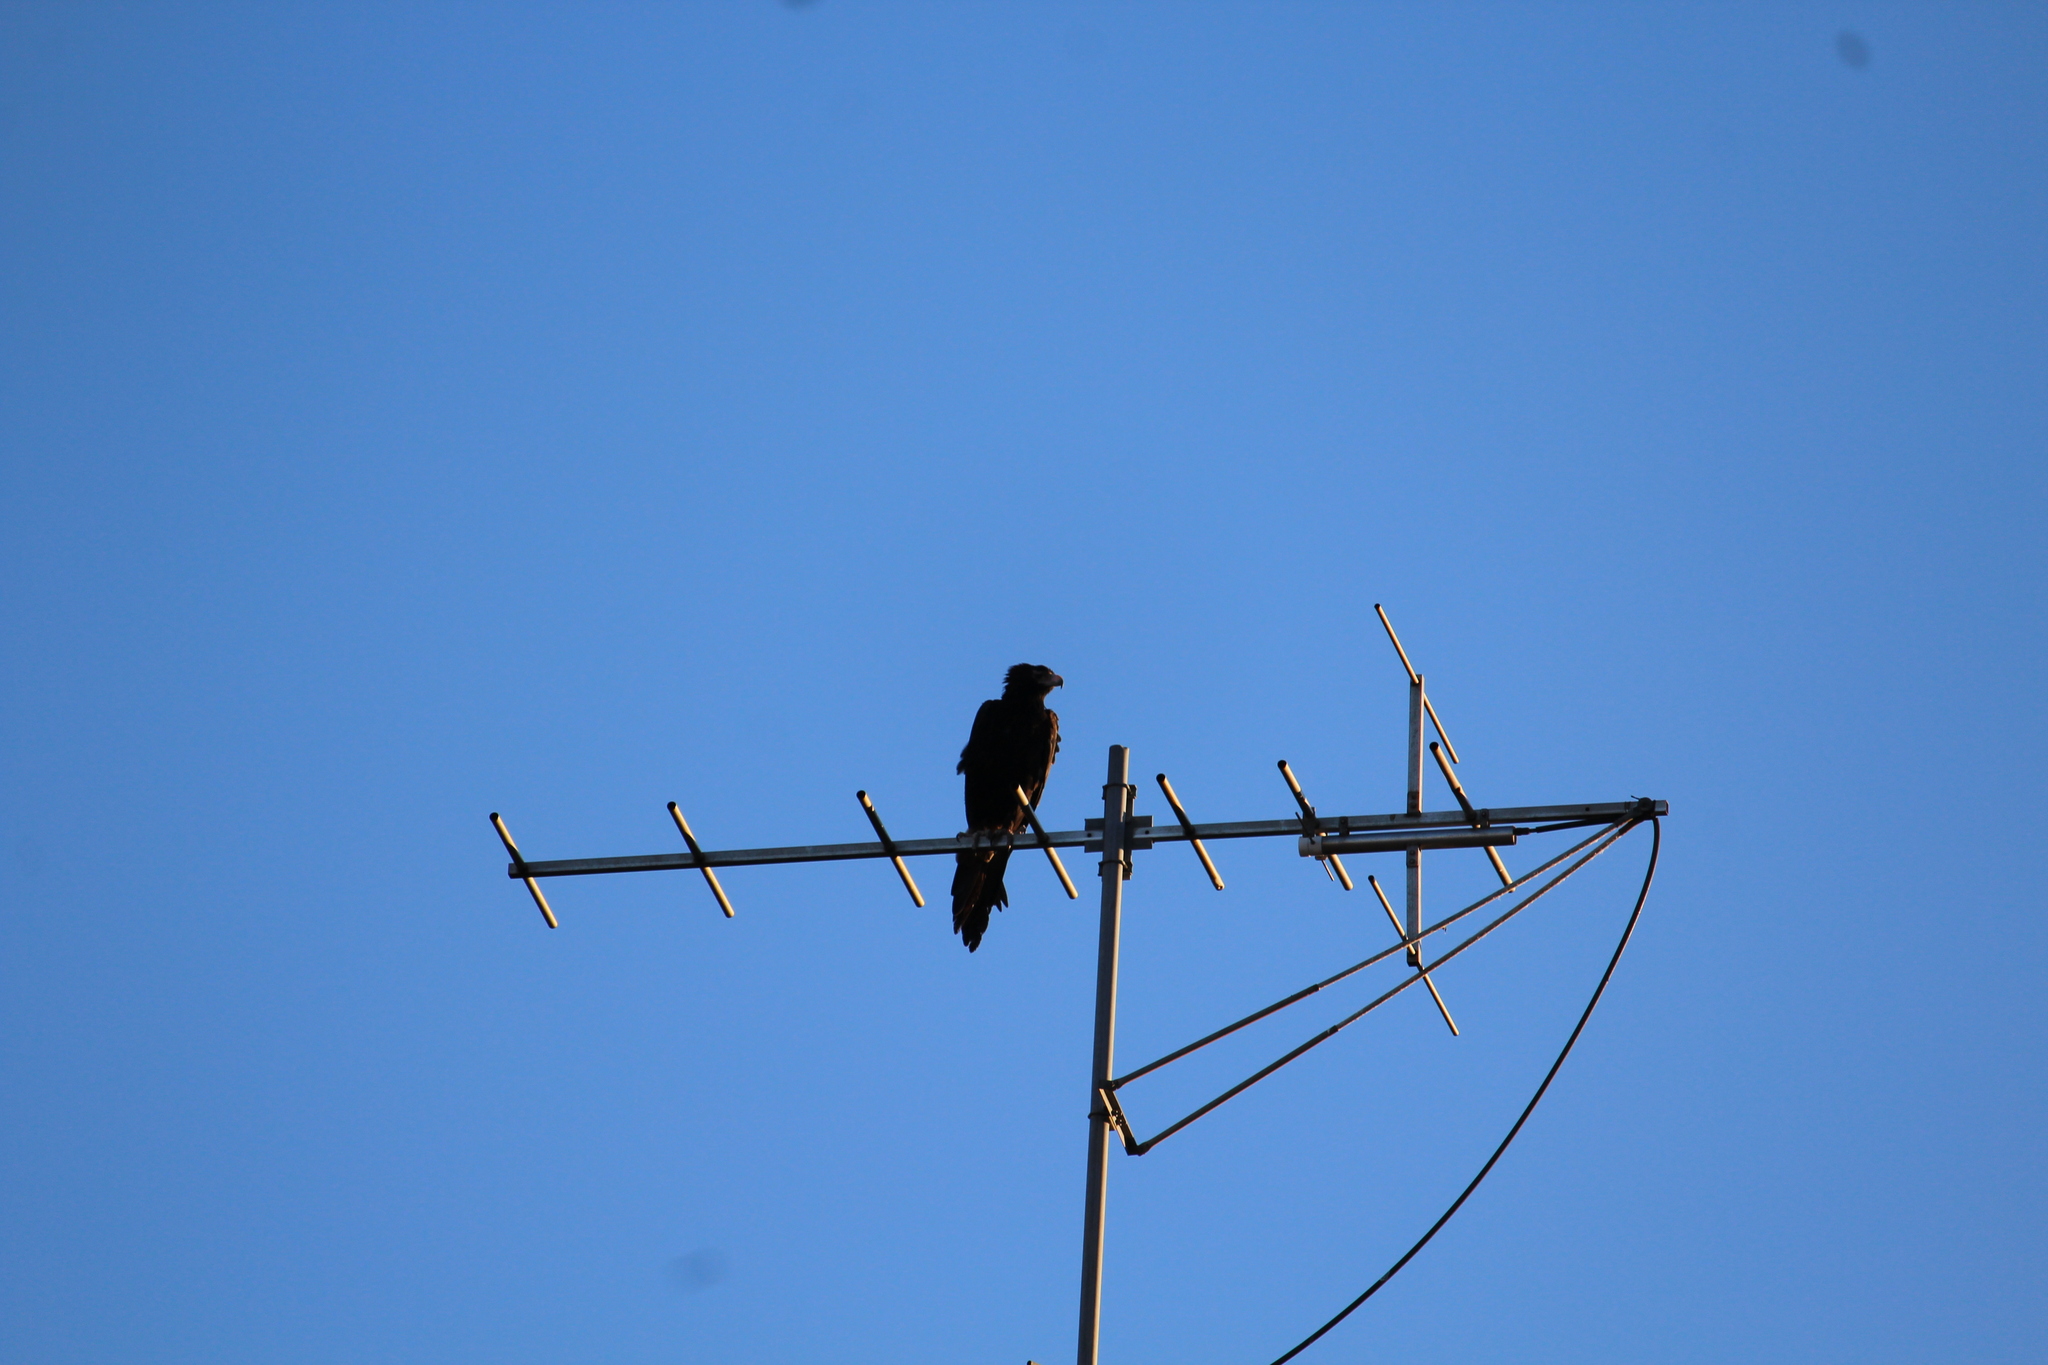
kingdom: Animalia
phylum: Chordata
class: Aves
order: Accipitriformes
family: Accipitridae
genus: Aquila
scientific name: Aquila audax
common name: Wedge-tailed eagle
